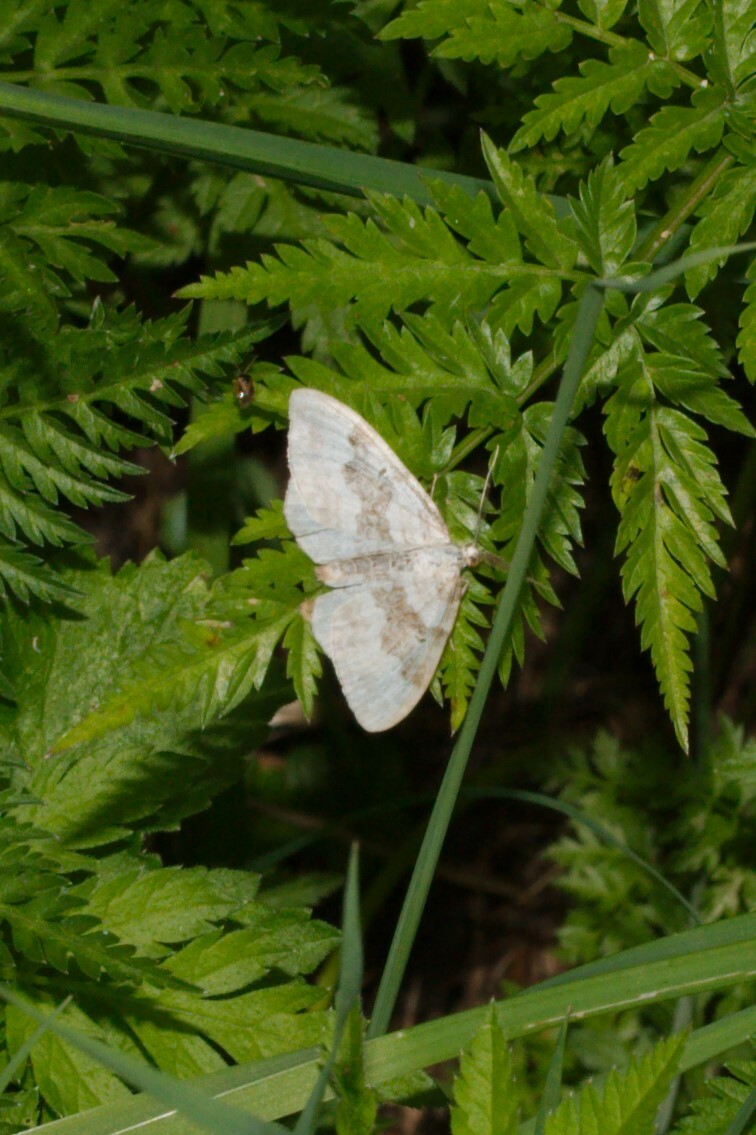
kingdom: Animalia
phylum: Arthropoda
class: Insecta
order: Lepidoptera
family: Geometridae
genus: Xanthorhoe
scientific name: Xanthorhoe montanata
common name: Silver-ground carpet
